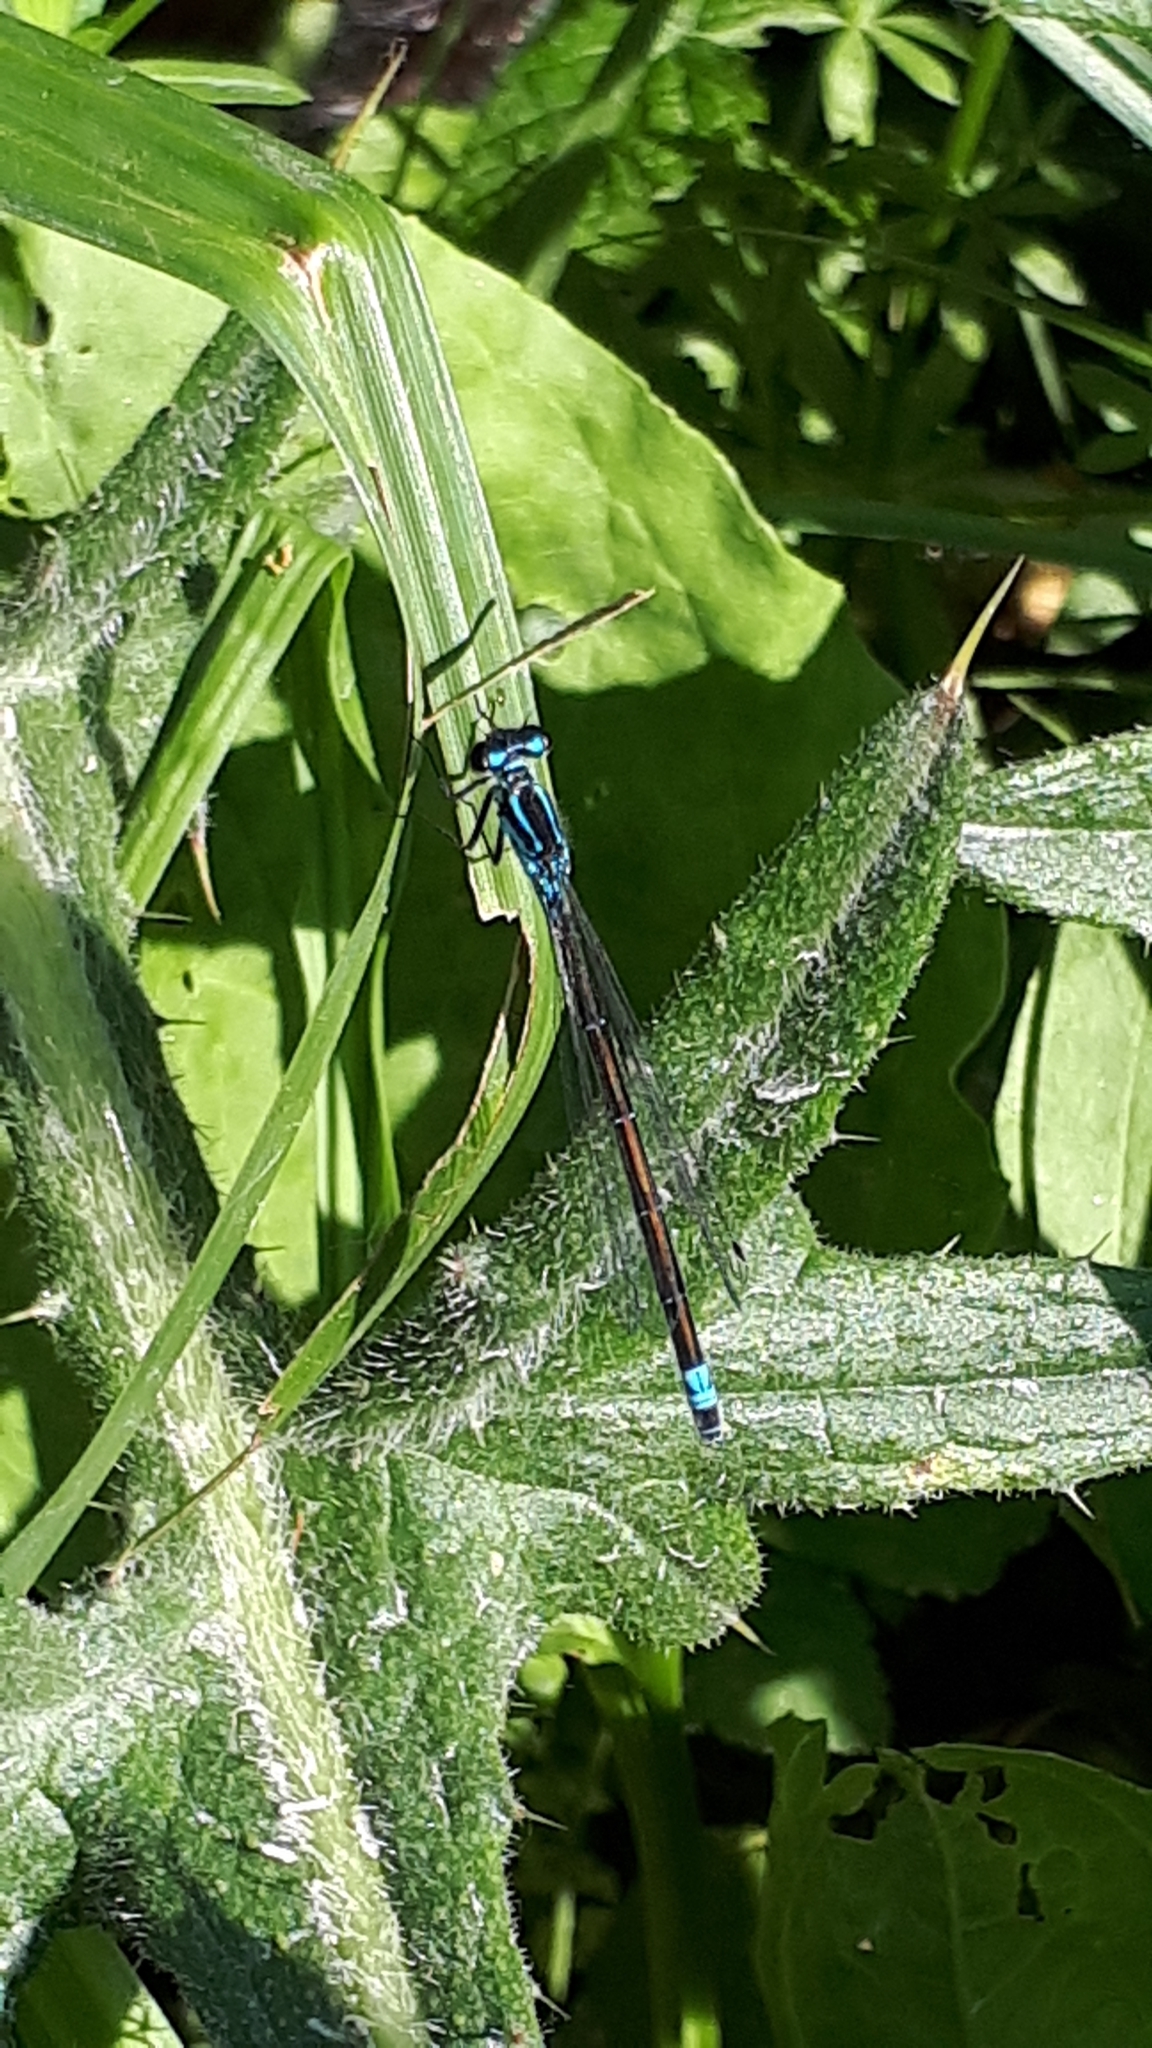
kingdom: Animalia
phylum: Arthropoda
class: Insecta
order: Odonata
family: Coenagrionidae
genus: Coenagrion
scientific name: Coenagrion pulchellum
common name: Variable bluet
